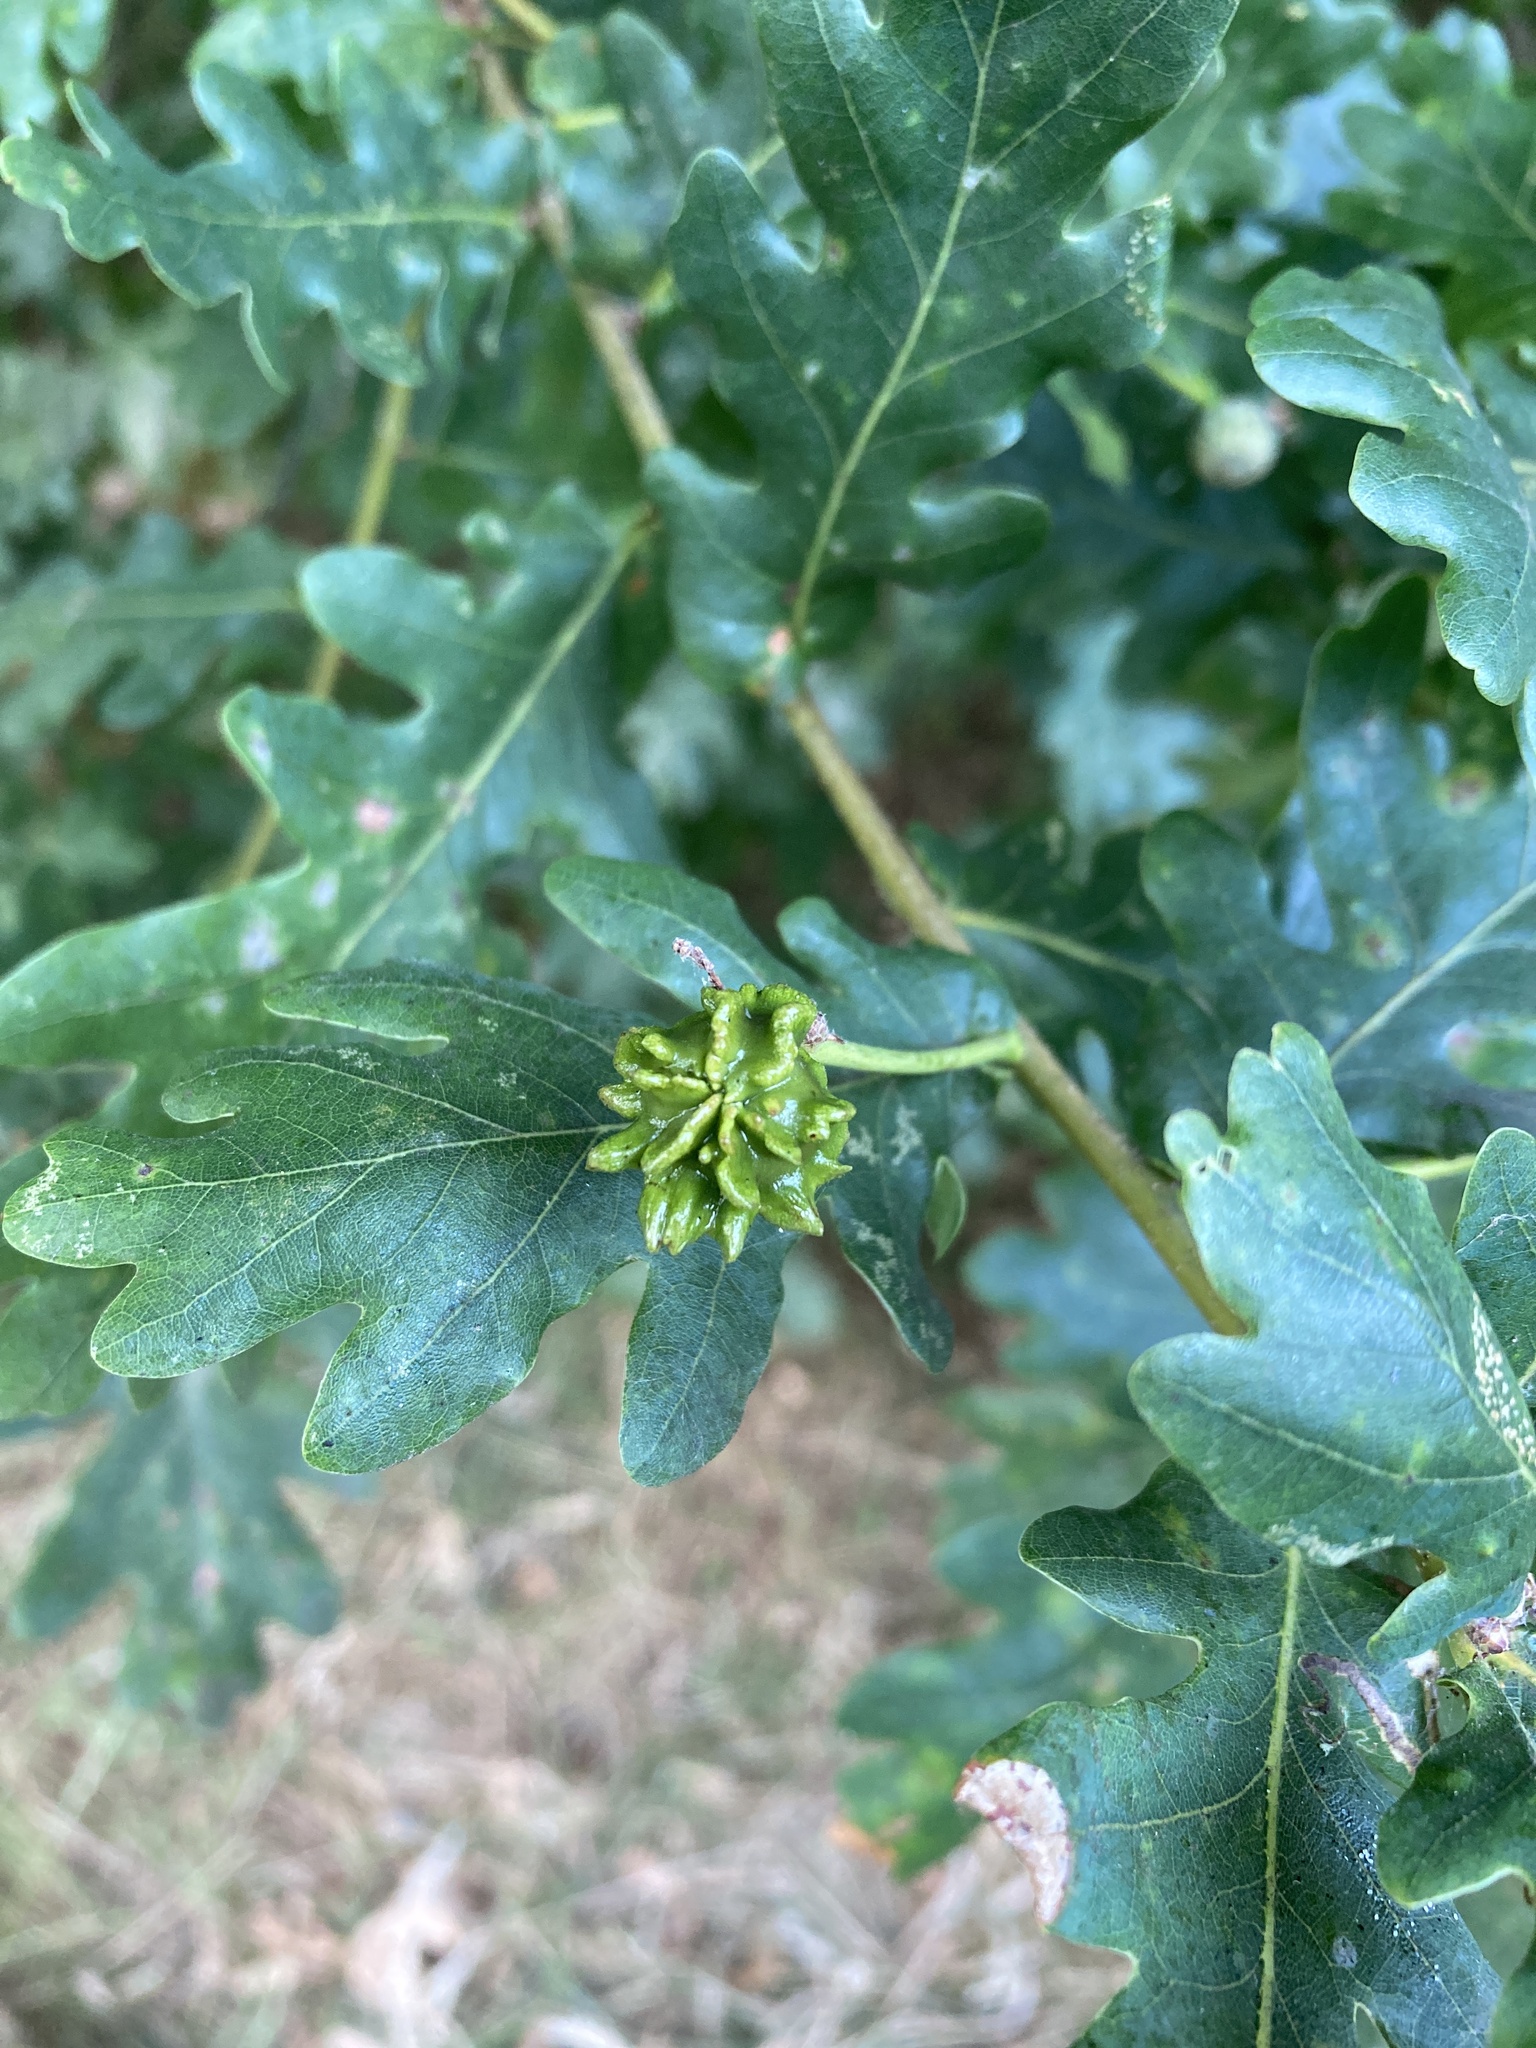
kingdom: Animalia
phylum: Arthropoda
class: Insecta
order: Hymenoptera
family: Cynipidae
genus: Andricus
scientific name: Andricus quercuscalicis
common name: Knopper gall
